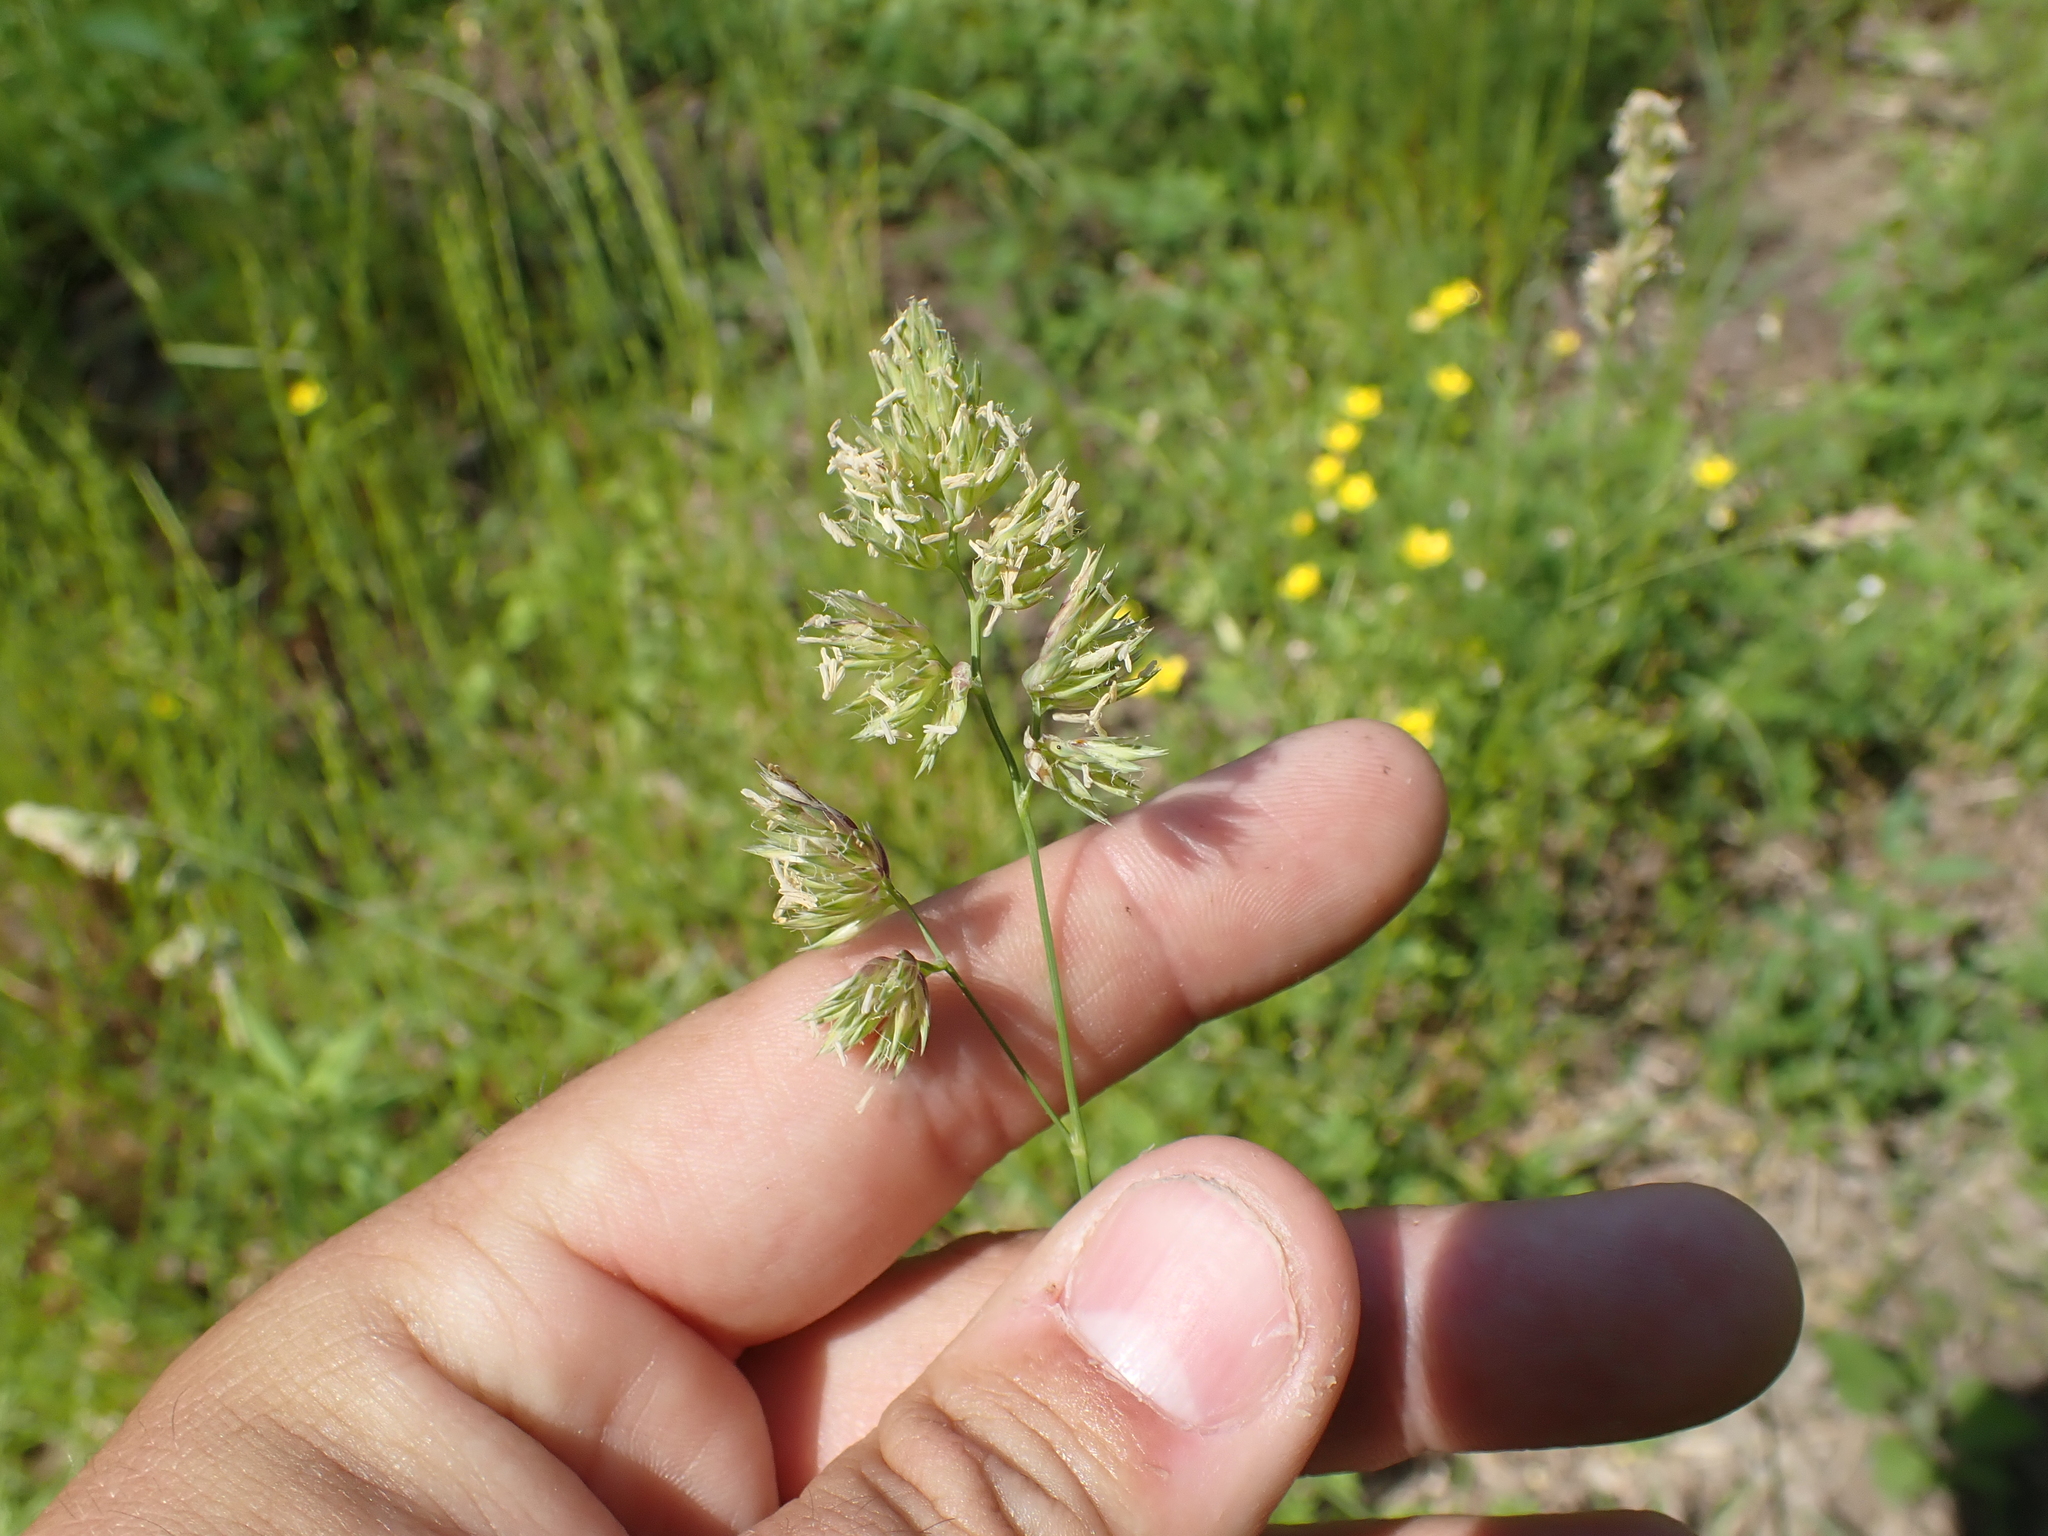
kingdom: Plantae
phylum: Tracheophyta
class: Liliopsida
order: Poales
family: Poaceae
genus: Dactylis
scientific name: Dactylis glomerata
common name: Orchardgrass
